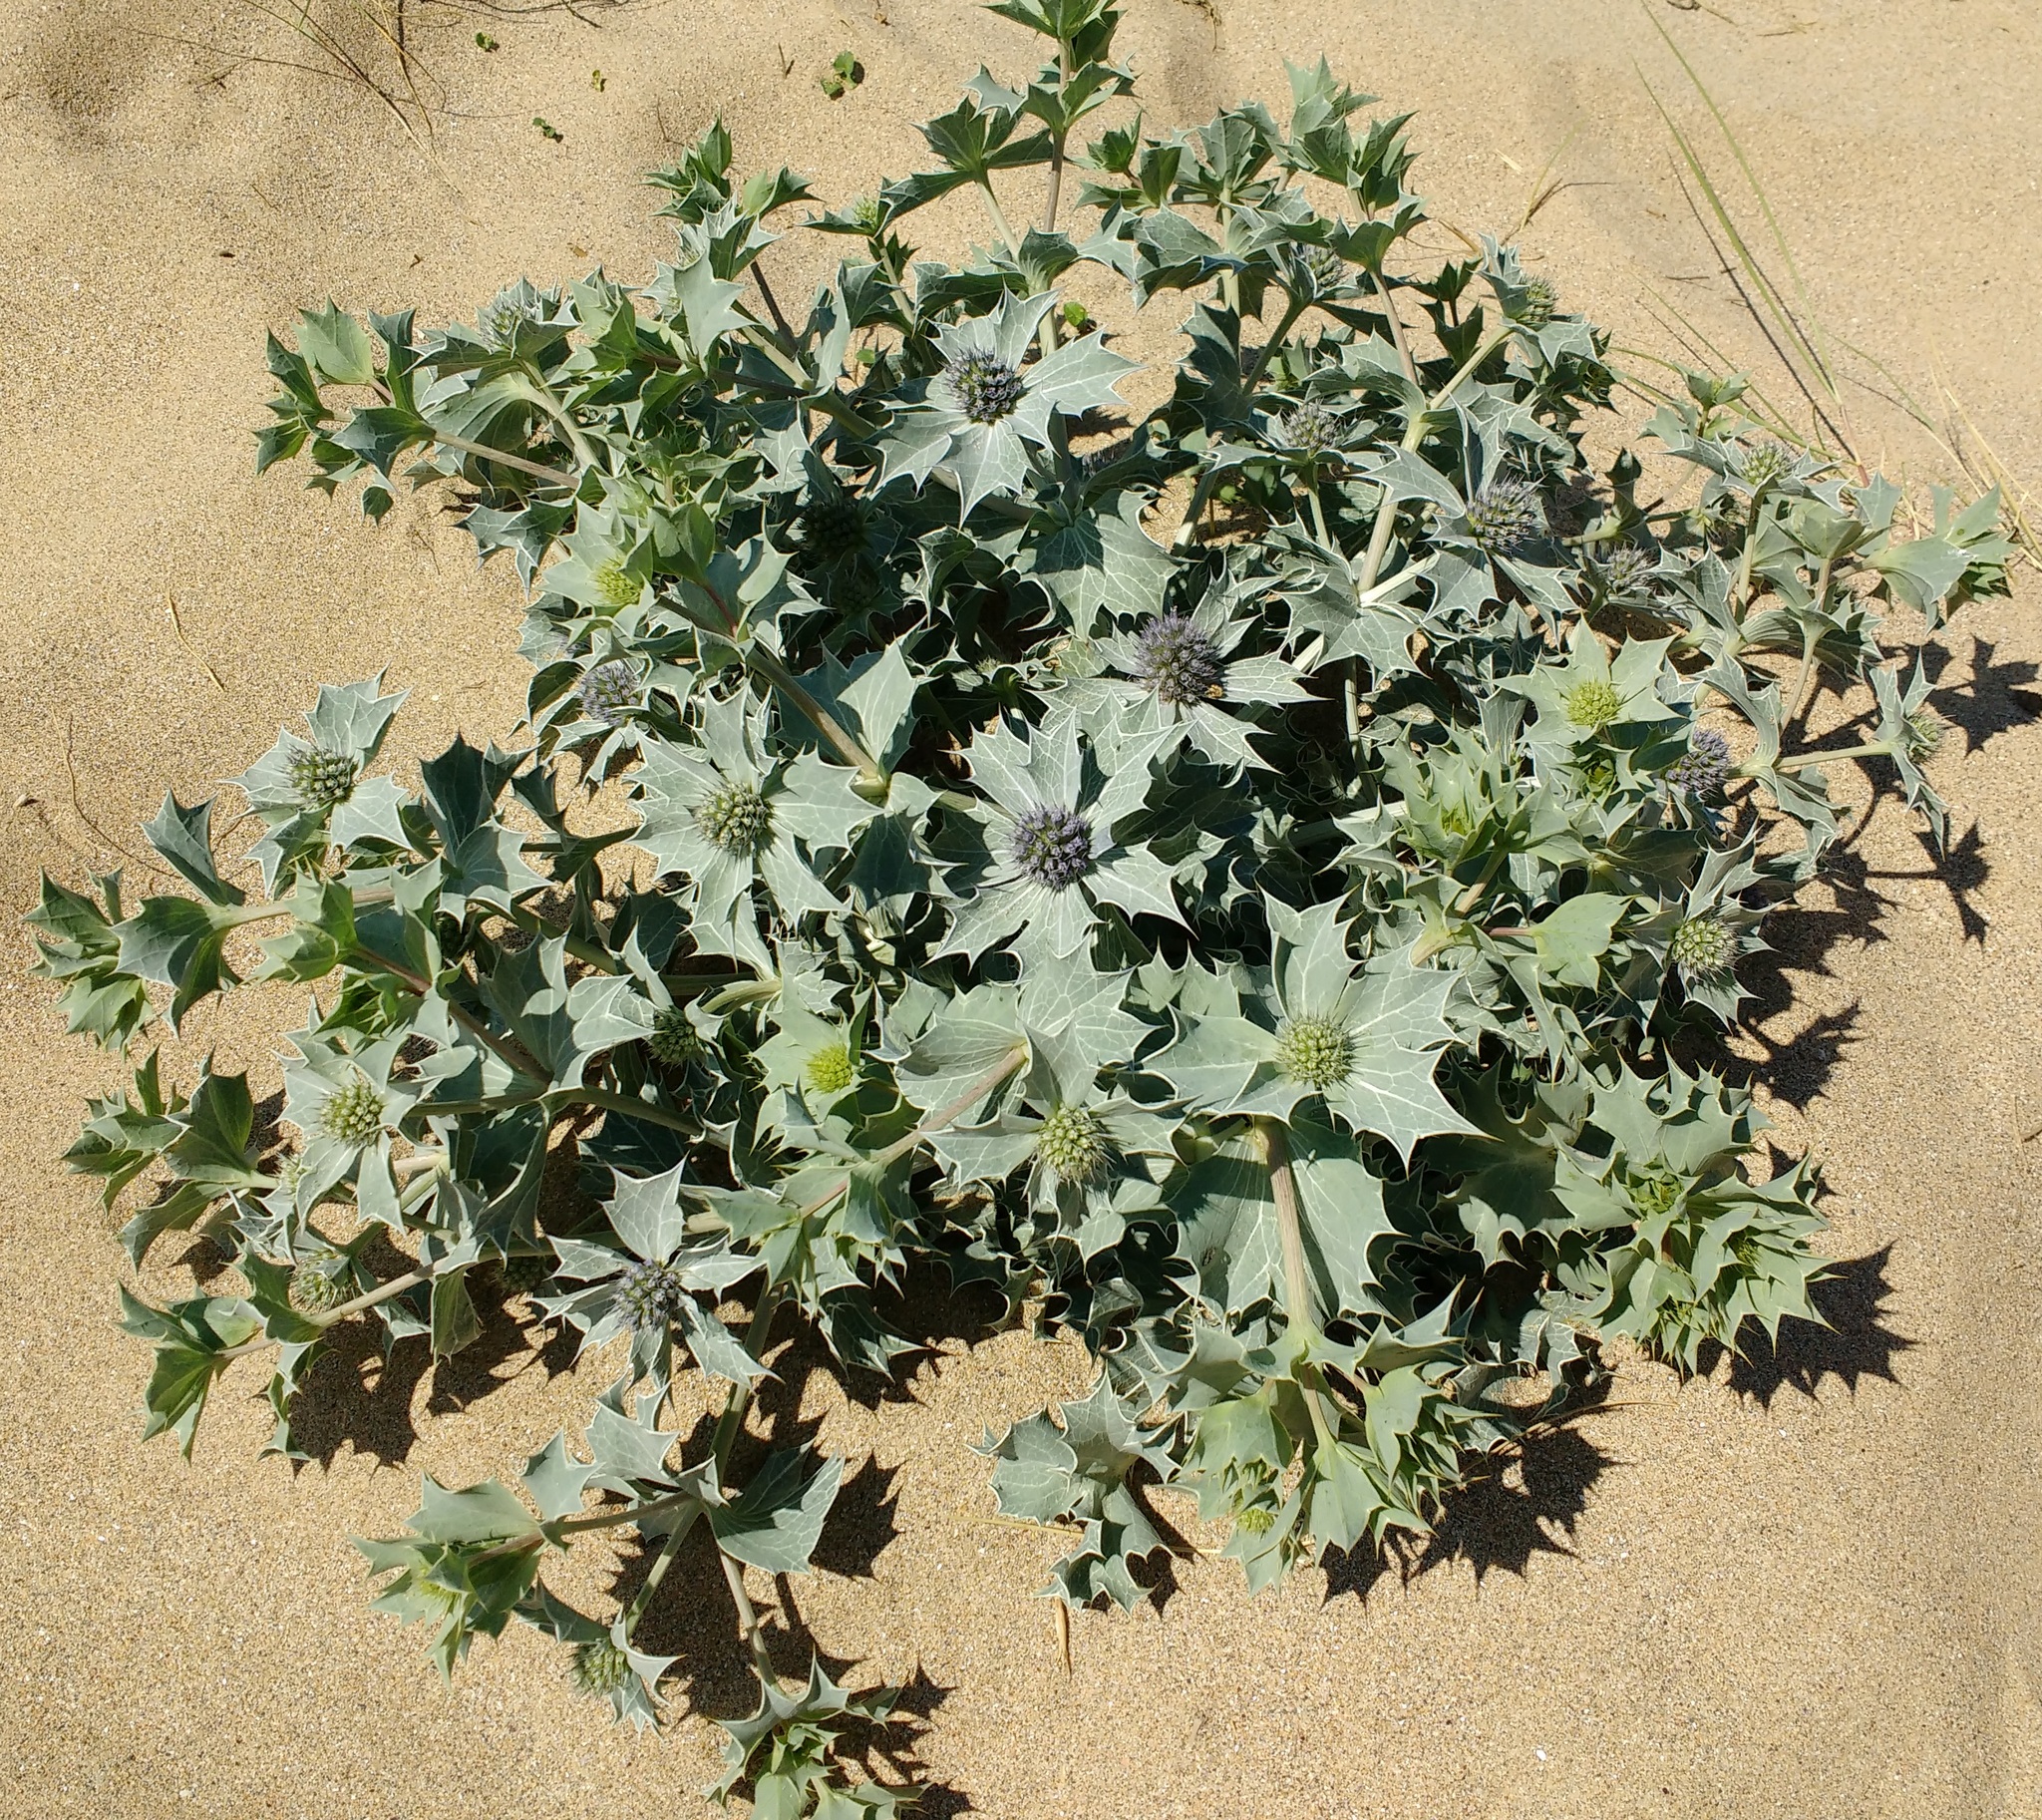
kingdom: Plantae
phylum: Tracheophyta
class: Magnoliopsida
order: Apiales
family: Apiaceae
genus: Eryngium
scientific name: Eryngium maritimum
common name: Sea-holly
